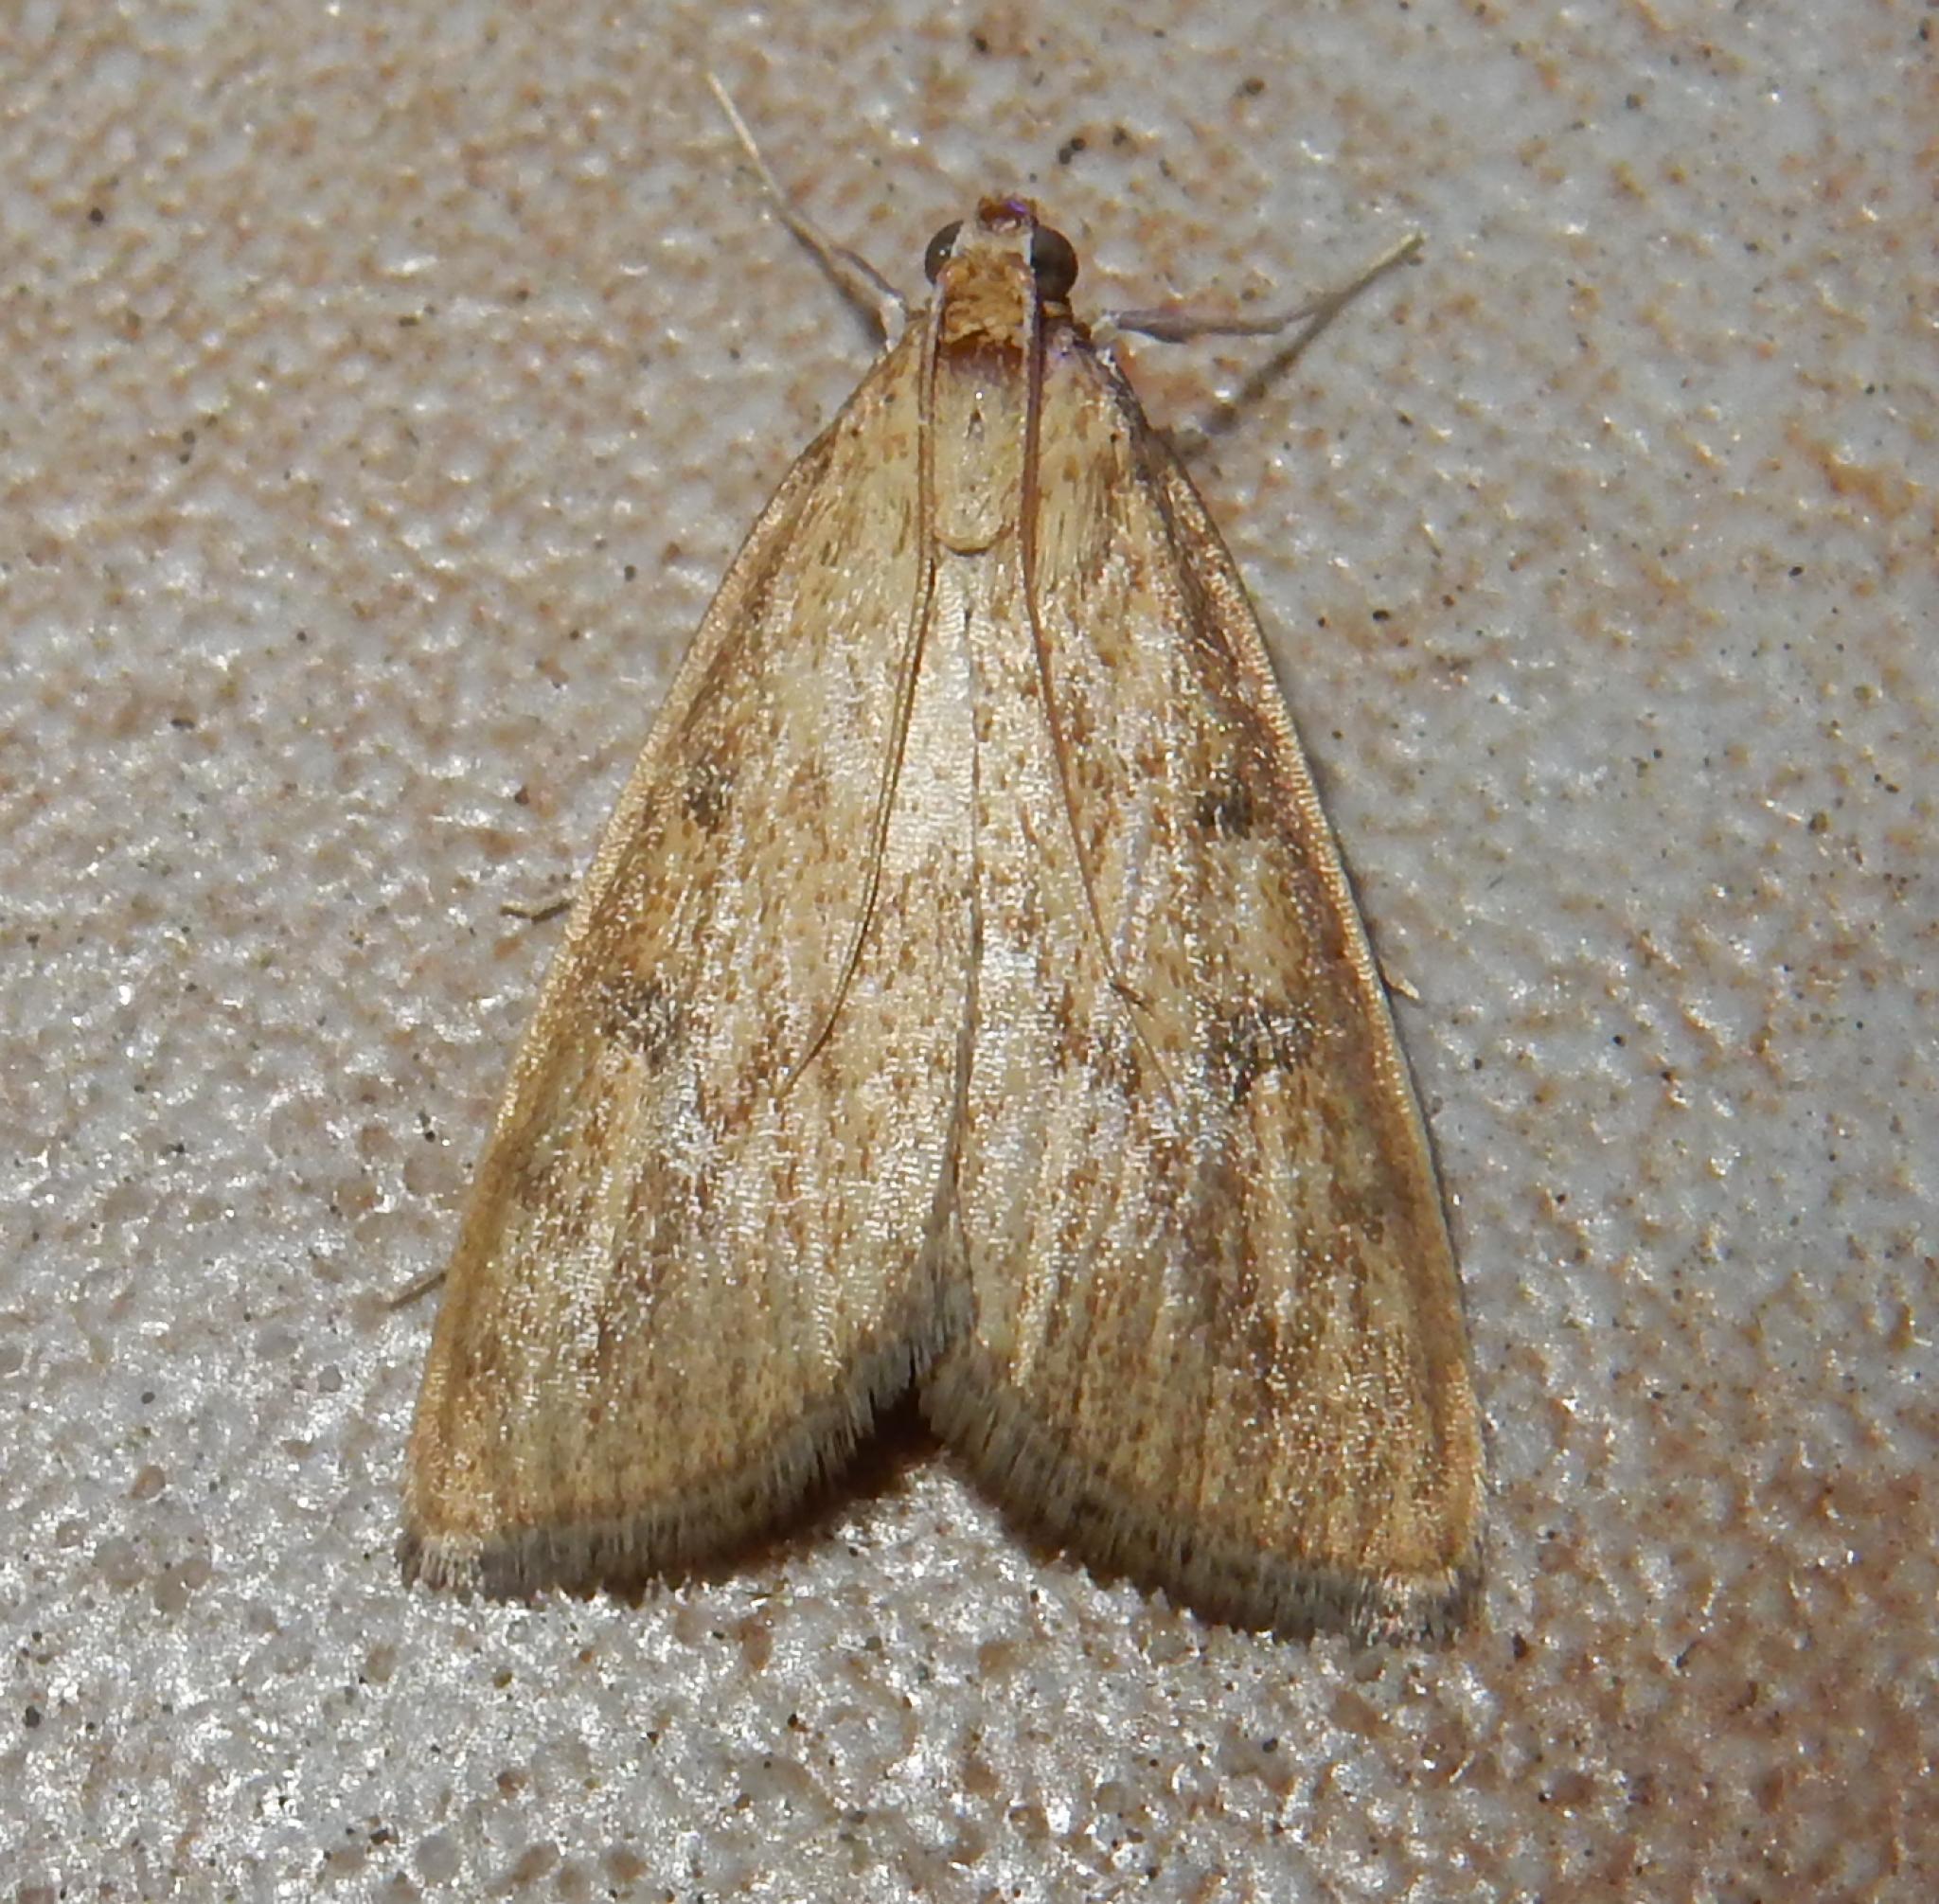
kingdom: Animalia
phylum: Arthropoda
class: Insecta
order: Lepidoptera
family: Crambidae
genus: Udea
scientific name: Udea ferrugalis
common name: Rusty dot
